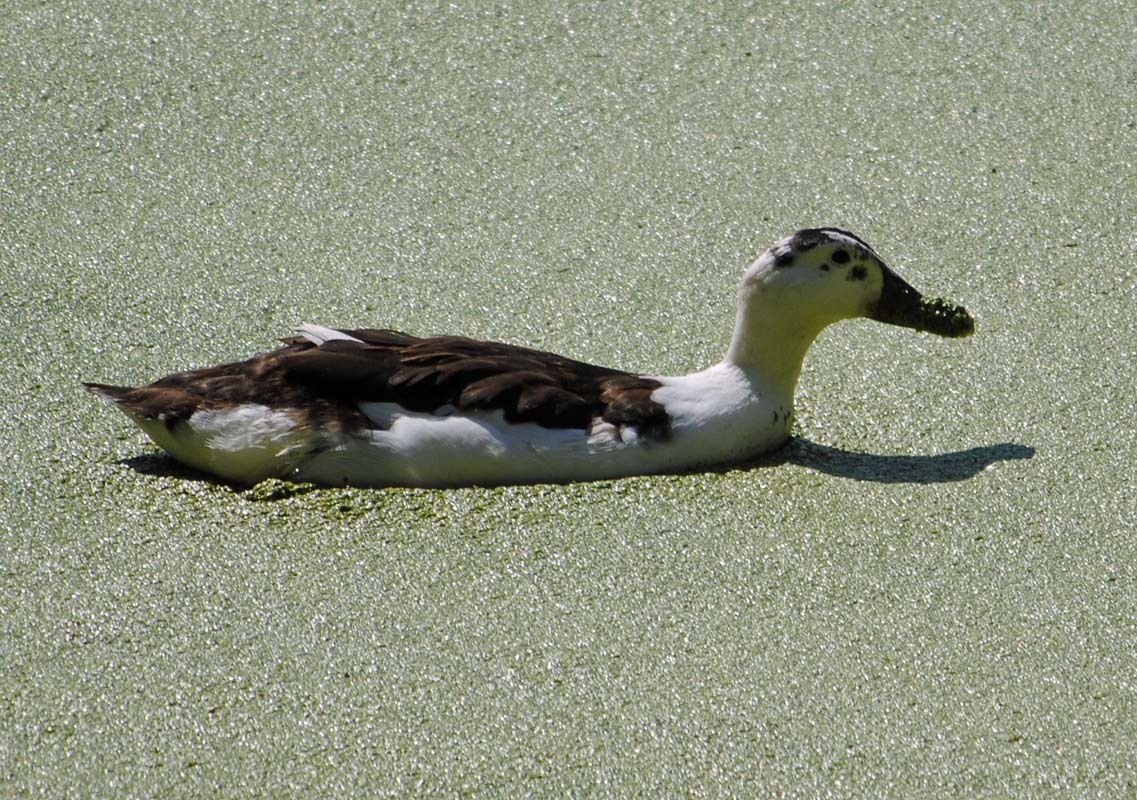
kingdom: Animalia
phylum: Chordata
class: Aves
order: Anseriformes
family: Anatidae
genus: Anas
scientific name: Anas platyrhynchos
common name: Mallard
